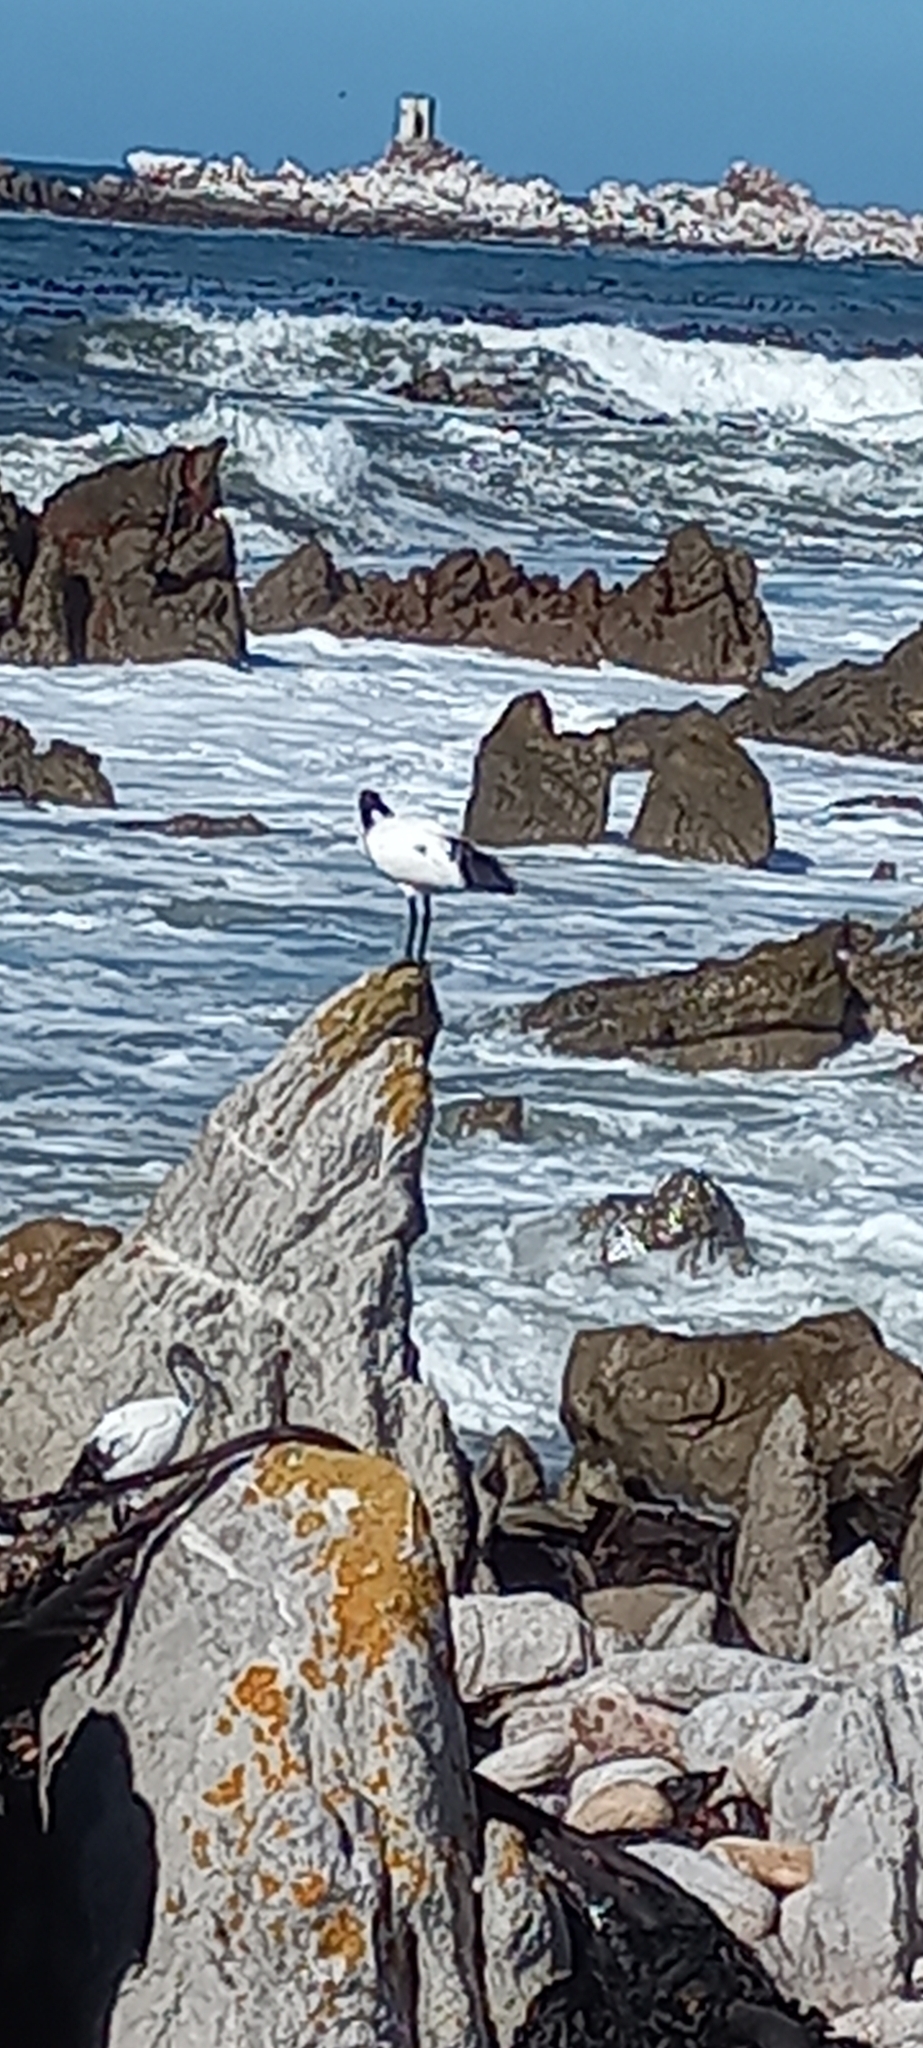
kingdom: Animalia
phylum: Chordata
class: Aves
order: Pelecaniformes
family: Threskiornithidae
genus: Threskiornis
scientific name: Threskiornis aethiopicus
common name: Sacred ibis
